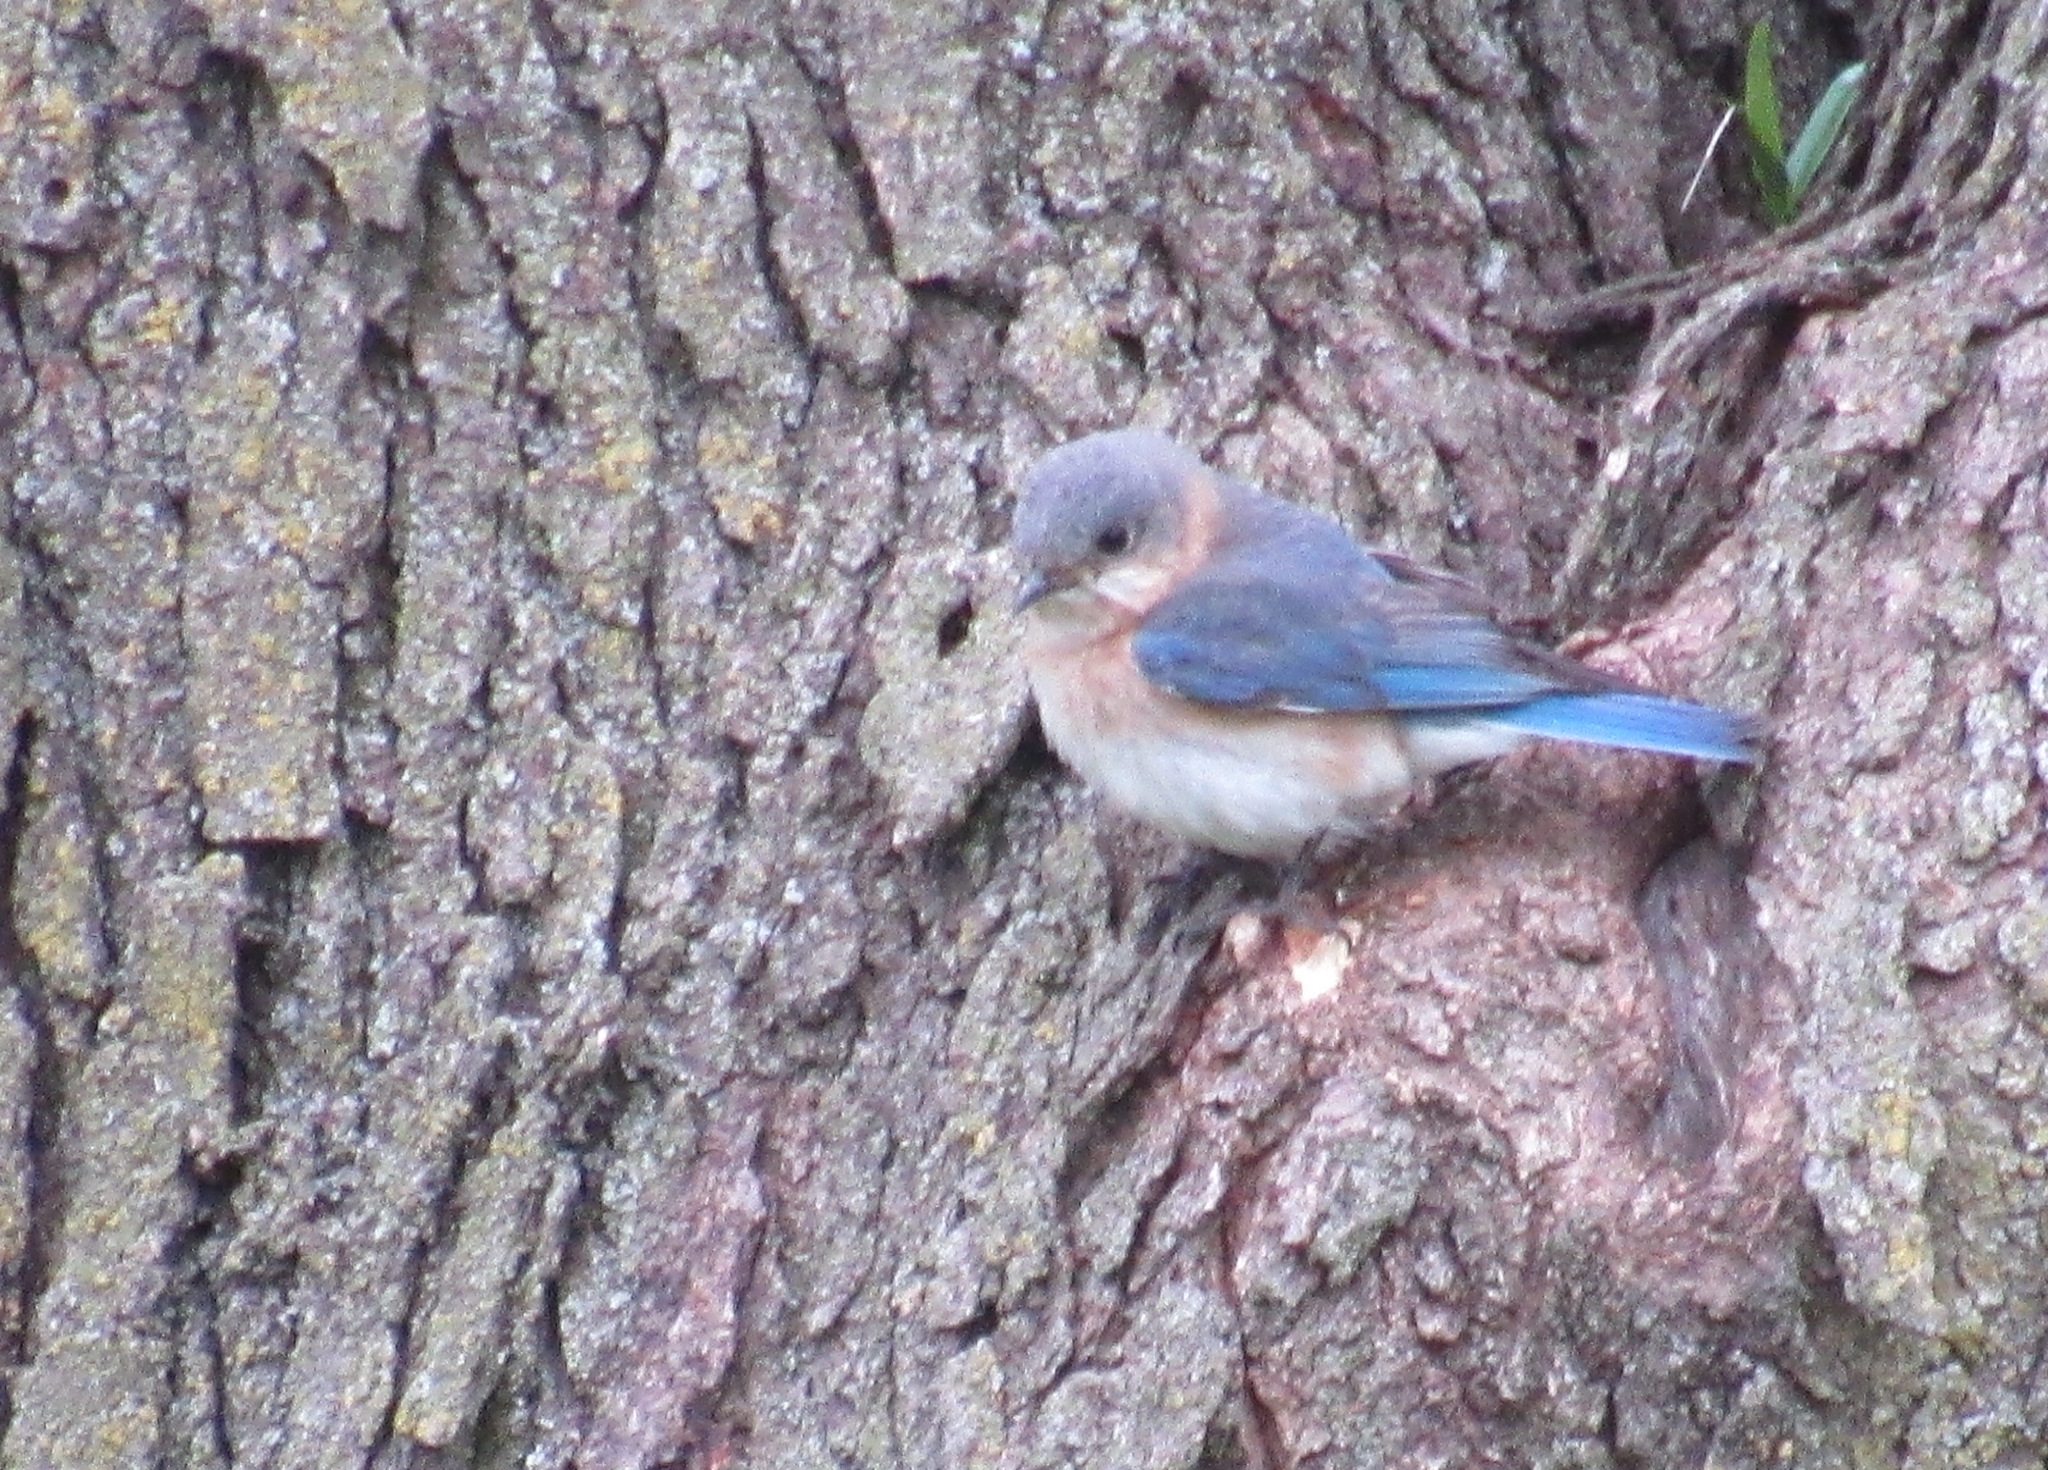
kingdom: Animalia
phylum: Chordata
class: Aves
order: Passeriformes
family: Turdidae
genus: Sialia
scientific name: Sialia sialis
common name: Eastern bluebird
